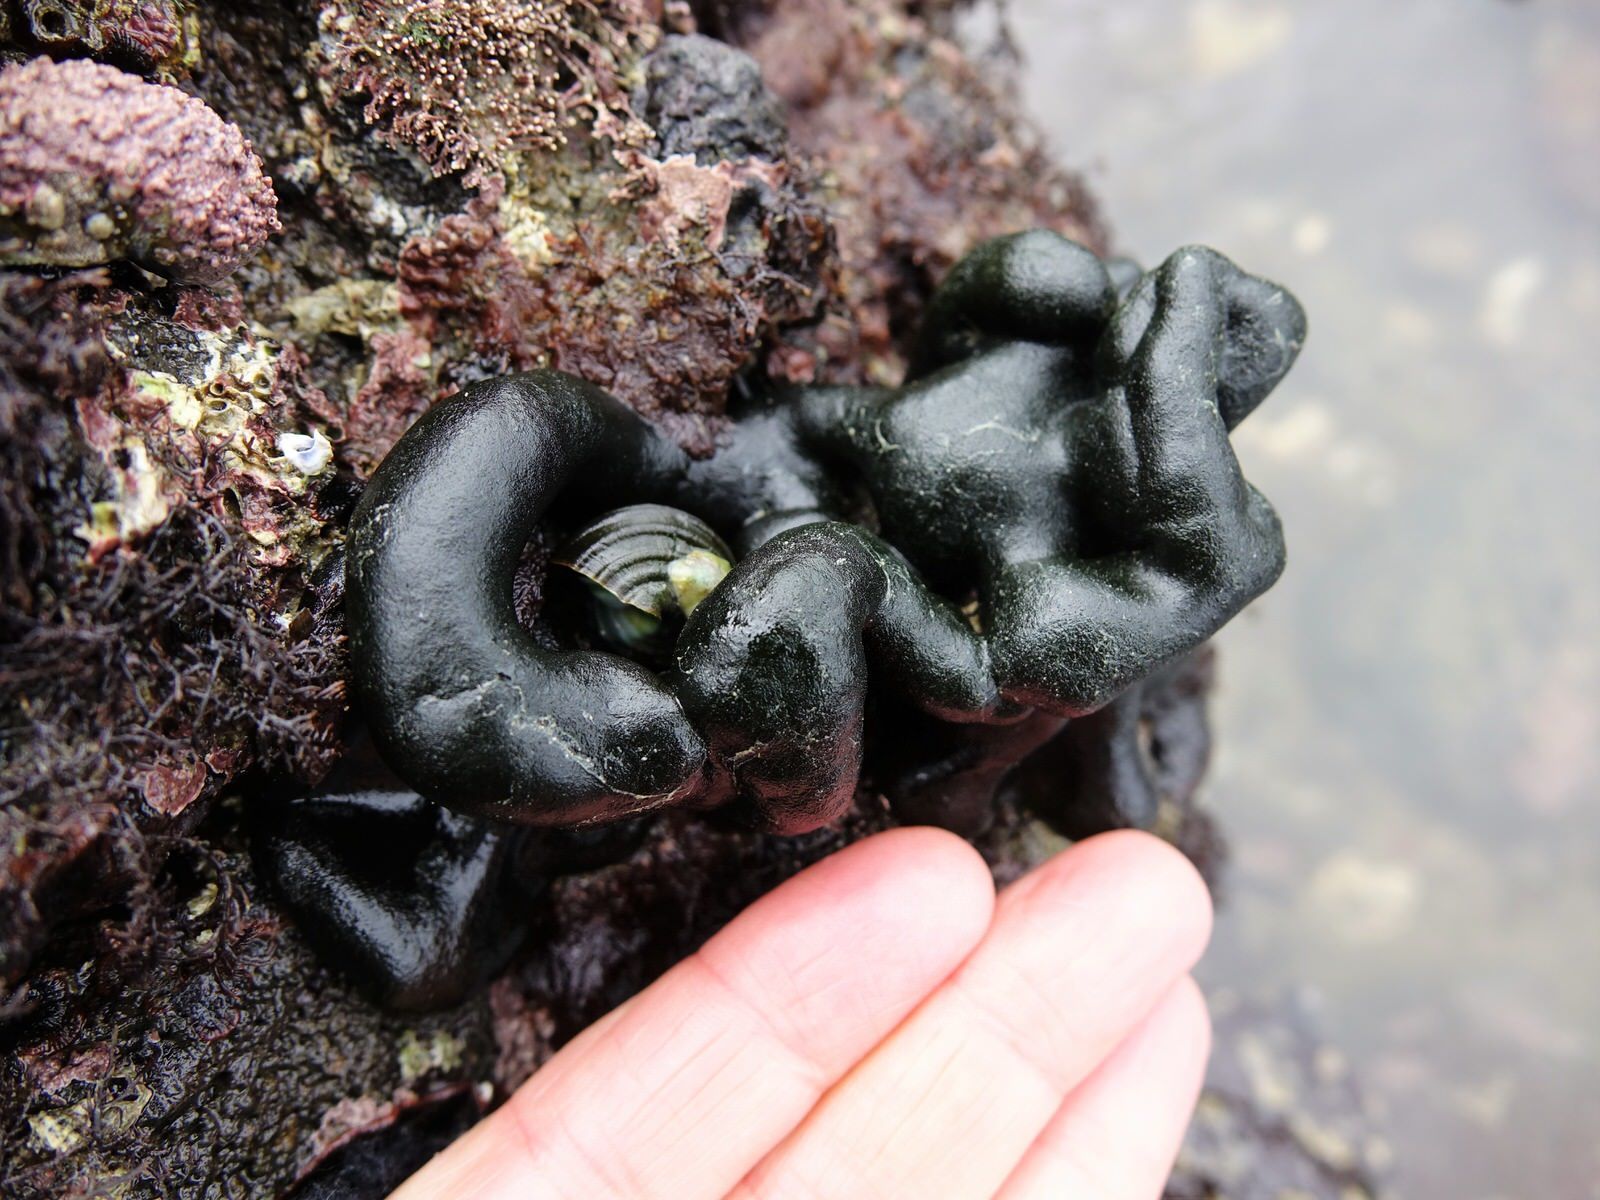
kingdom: Plantae
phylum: Chlorophyta
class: Ulvophyceae
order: Bryopsidales
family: Codiaceae
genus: Codium
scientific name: Codium convolutum
